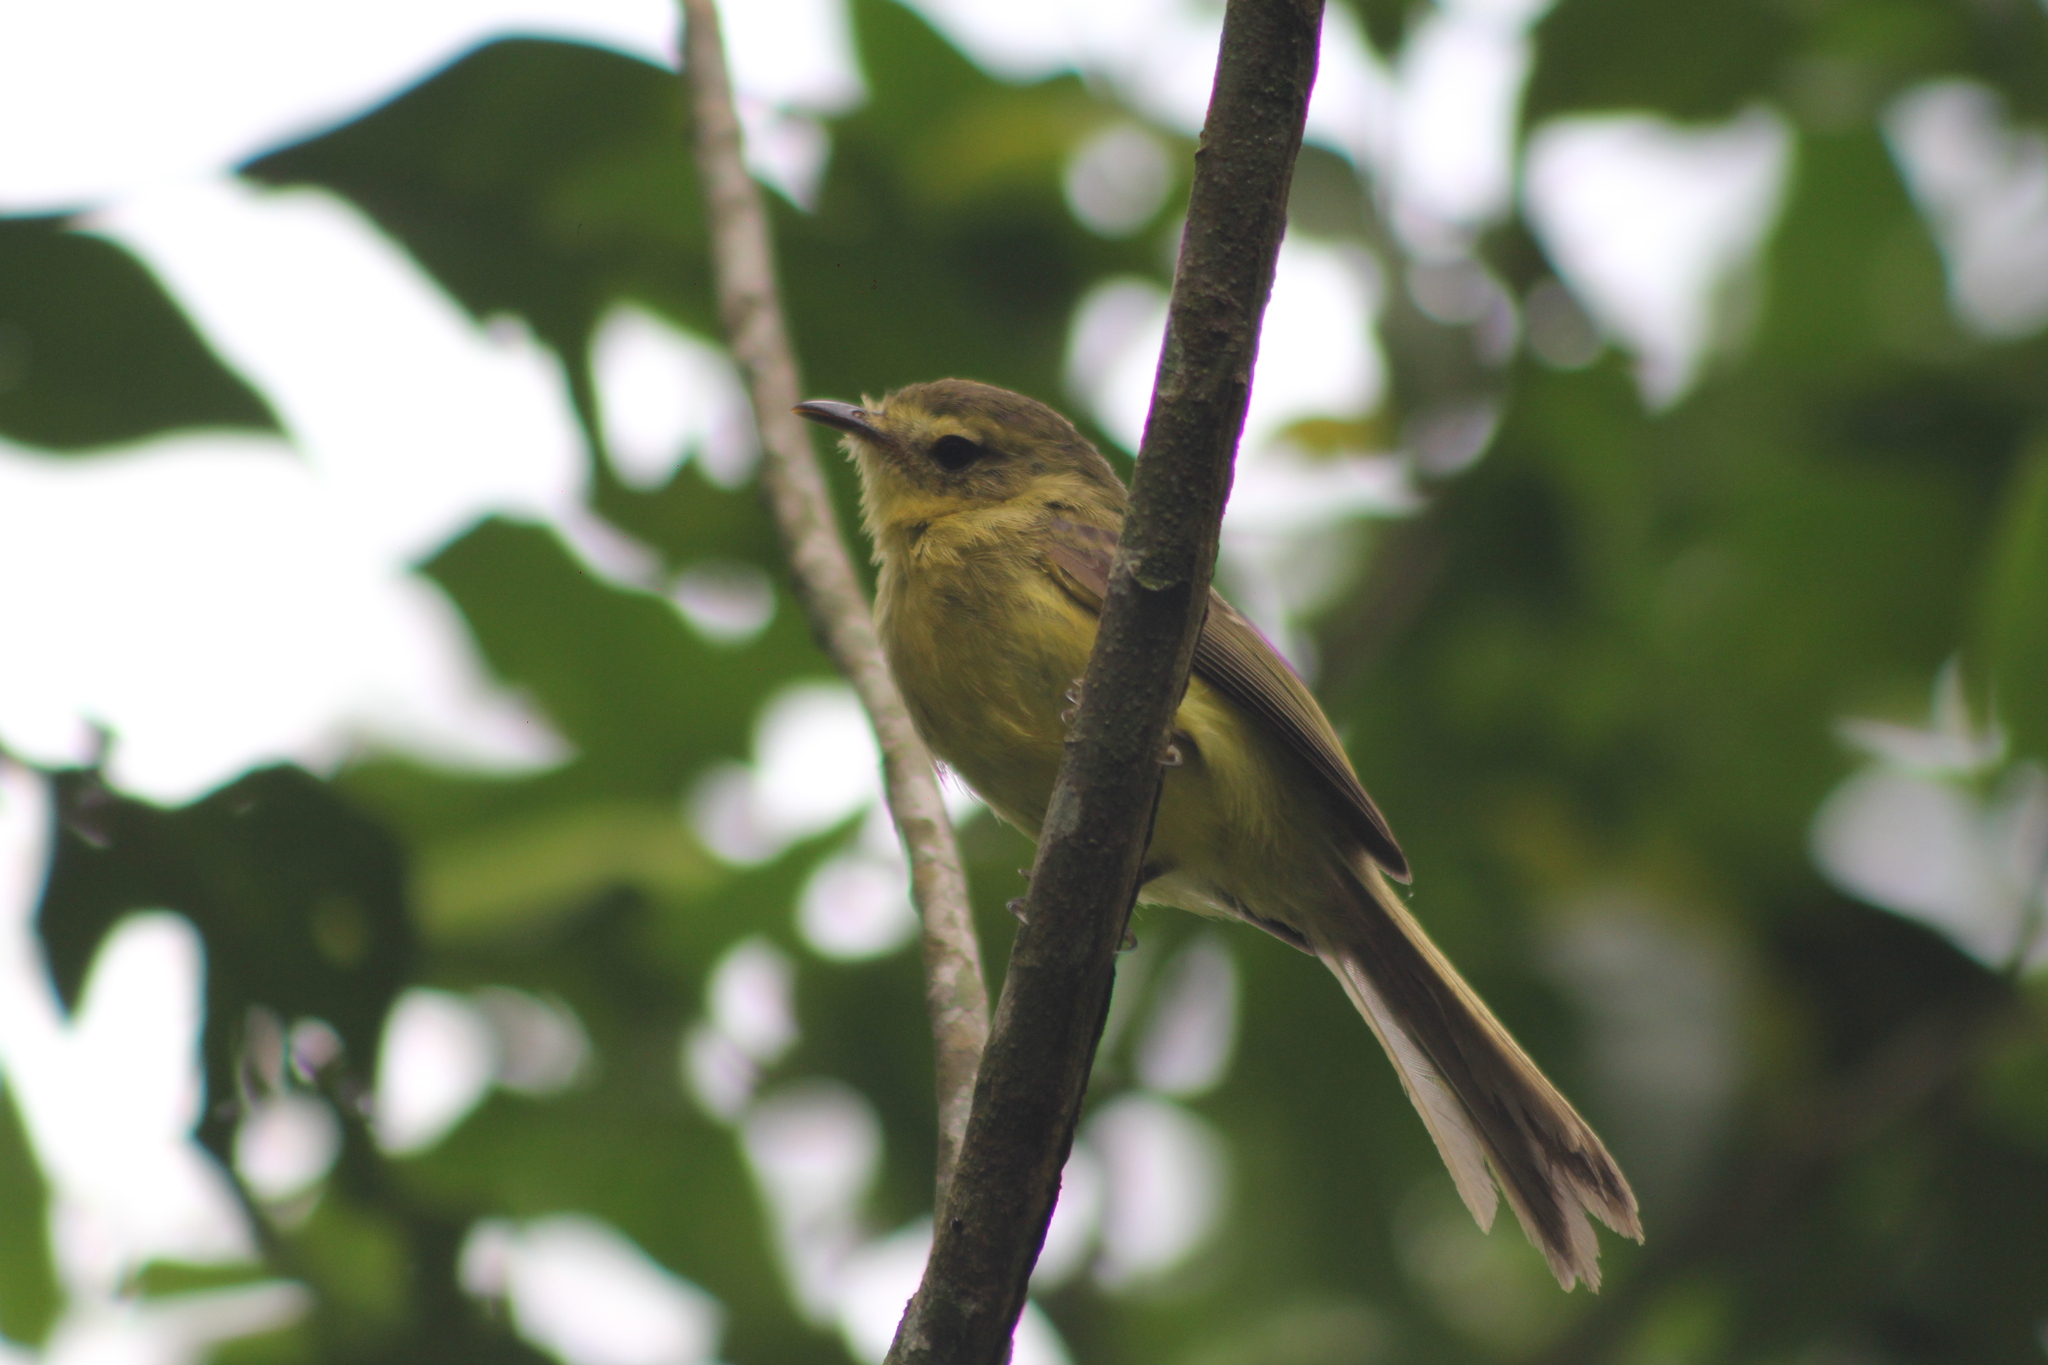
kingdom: Animalia
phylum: Chordata
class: Aves
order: Passeriformes
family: Tyrannidae
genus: Capsiempis
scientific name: Capsiempis flaveola
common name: Yellow tyrannulet
